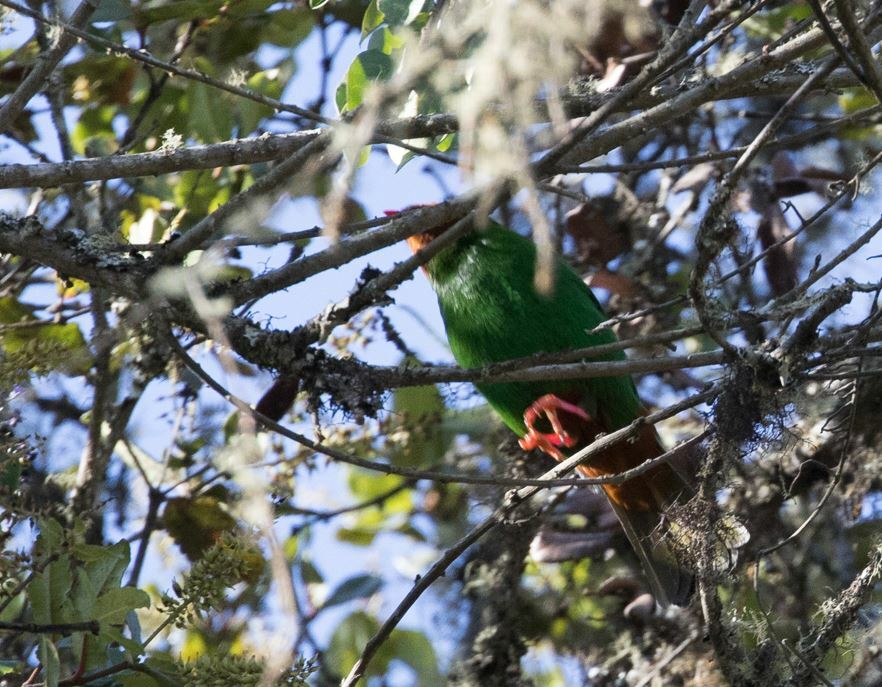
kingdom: Animalia
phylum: Chordata
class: Aves
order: Passeriformes
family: Thraupidae
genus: Chlorornis
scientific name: Chlorornis riefferii
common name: Grass-green tanager
